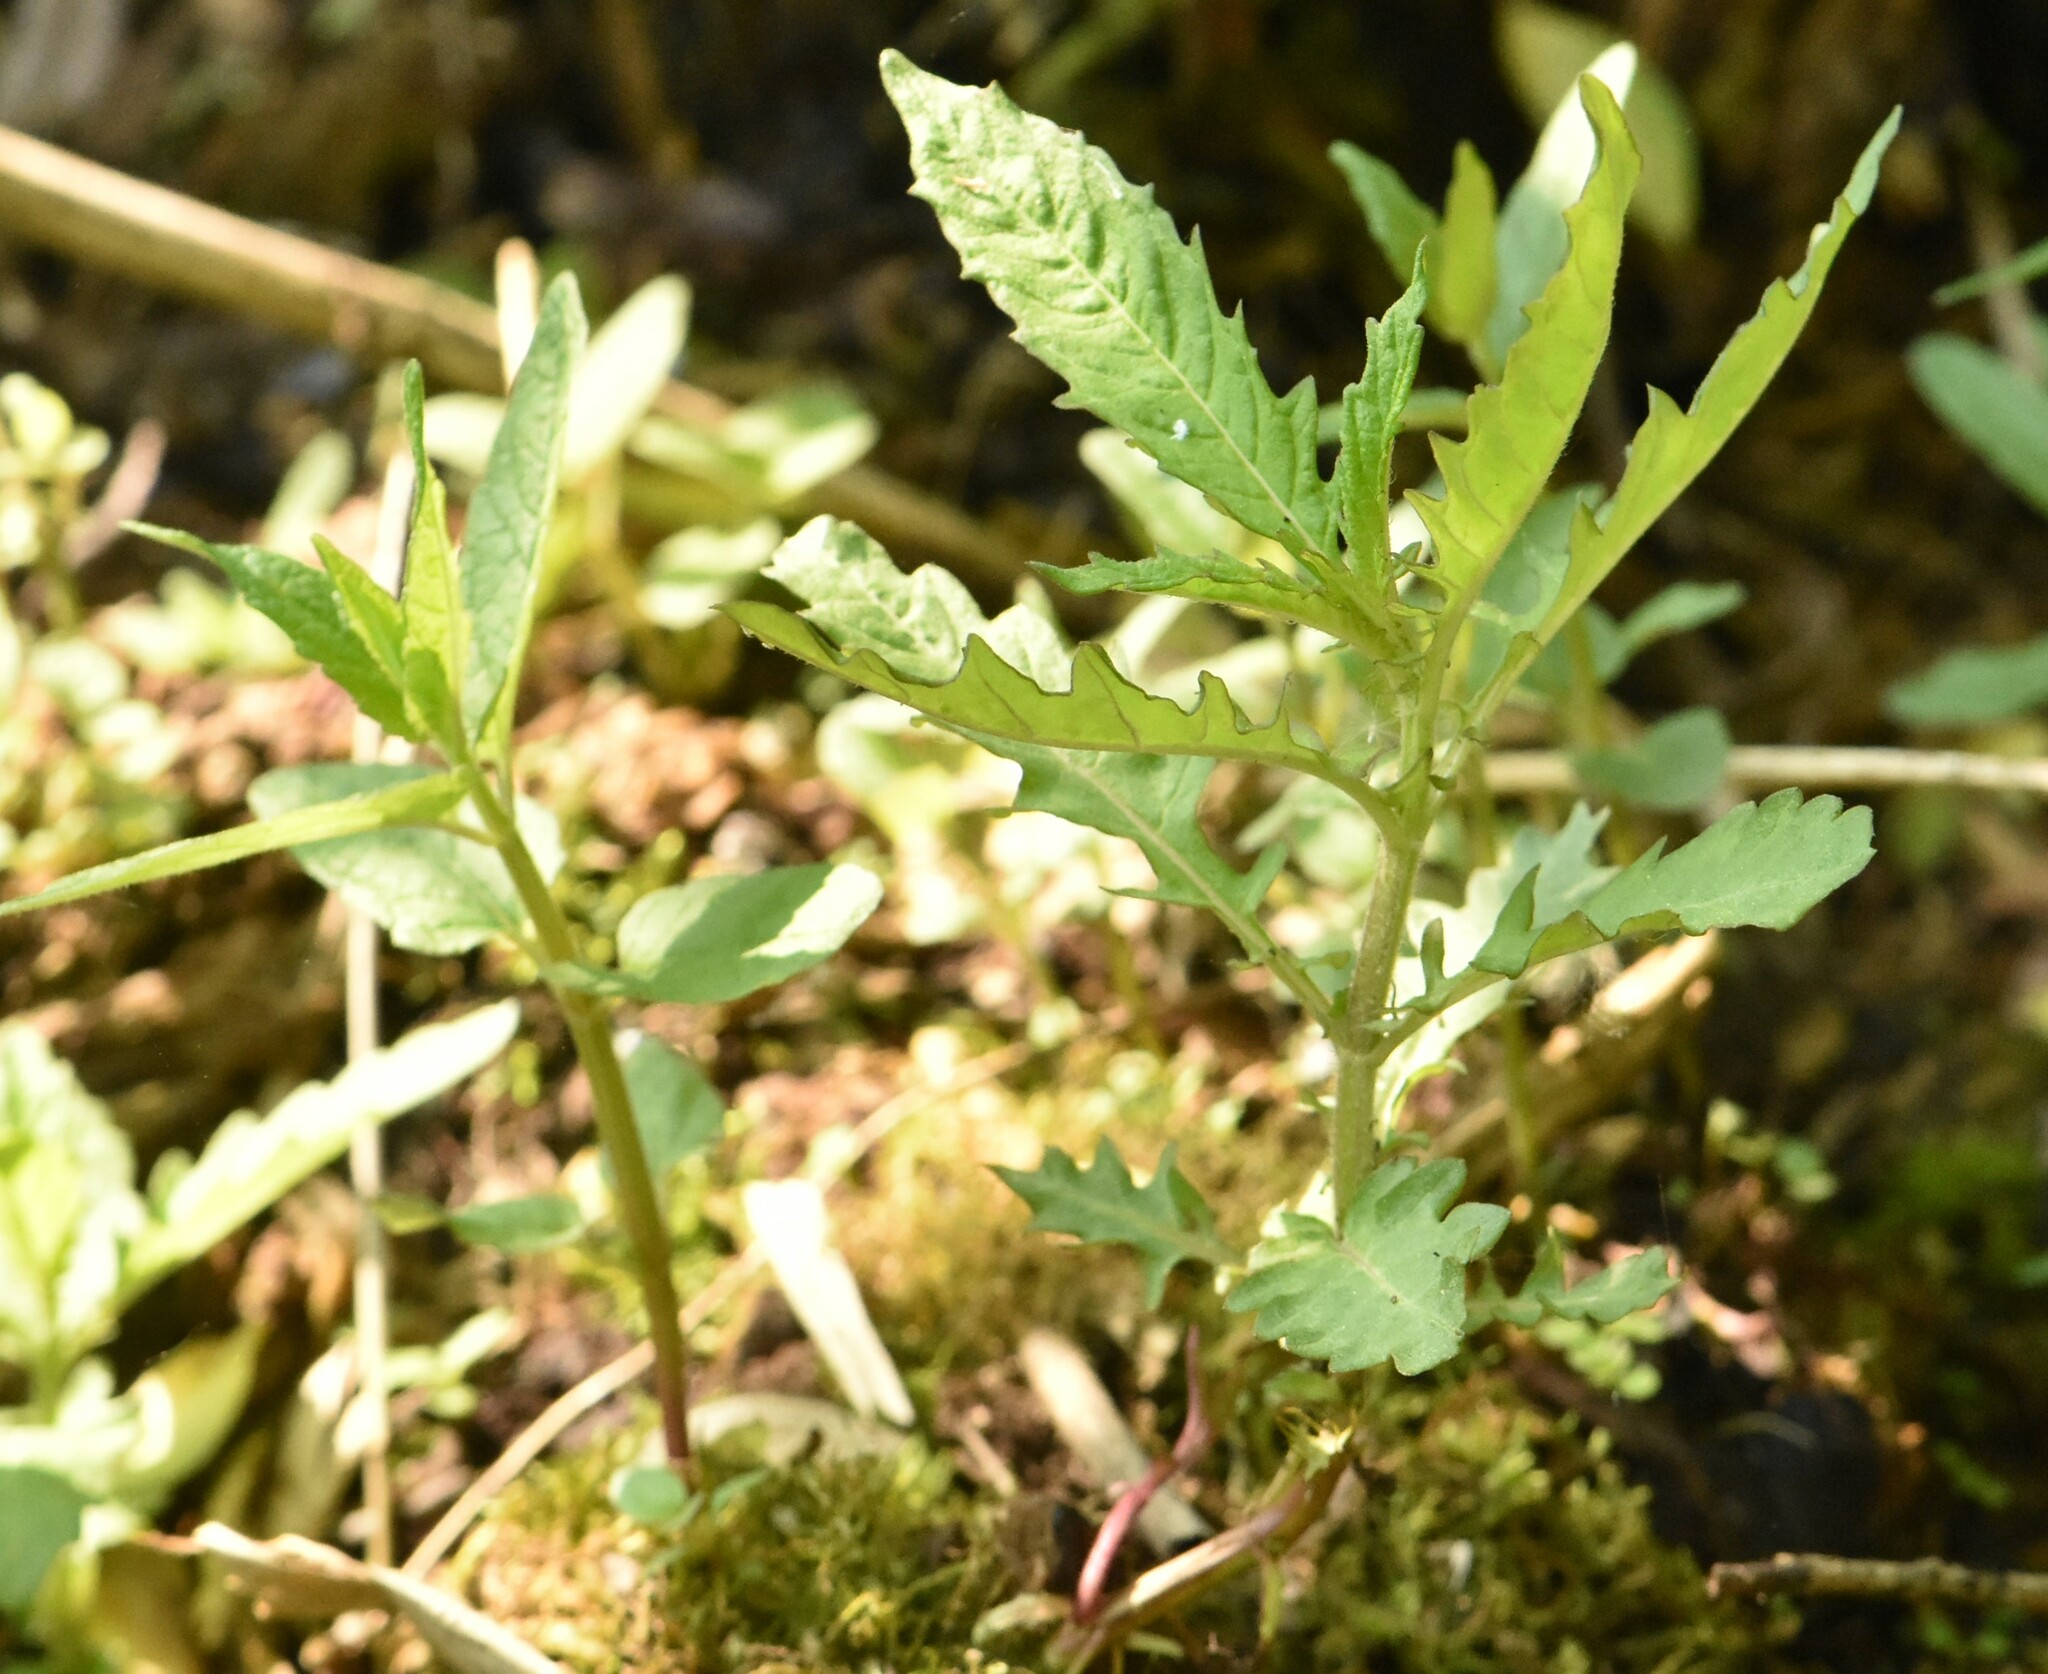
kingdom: Plantae
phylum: Tracheophyta
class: Magnoliopsida
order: Lamiales
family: Lamiaceae
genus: Lycopus
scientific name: Lycopus europaeus
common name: European bugleweed
